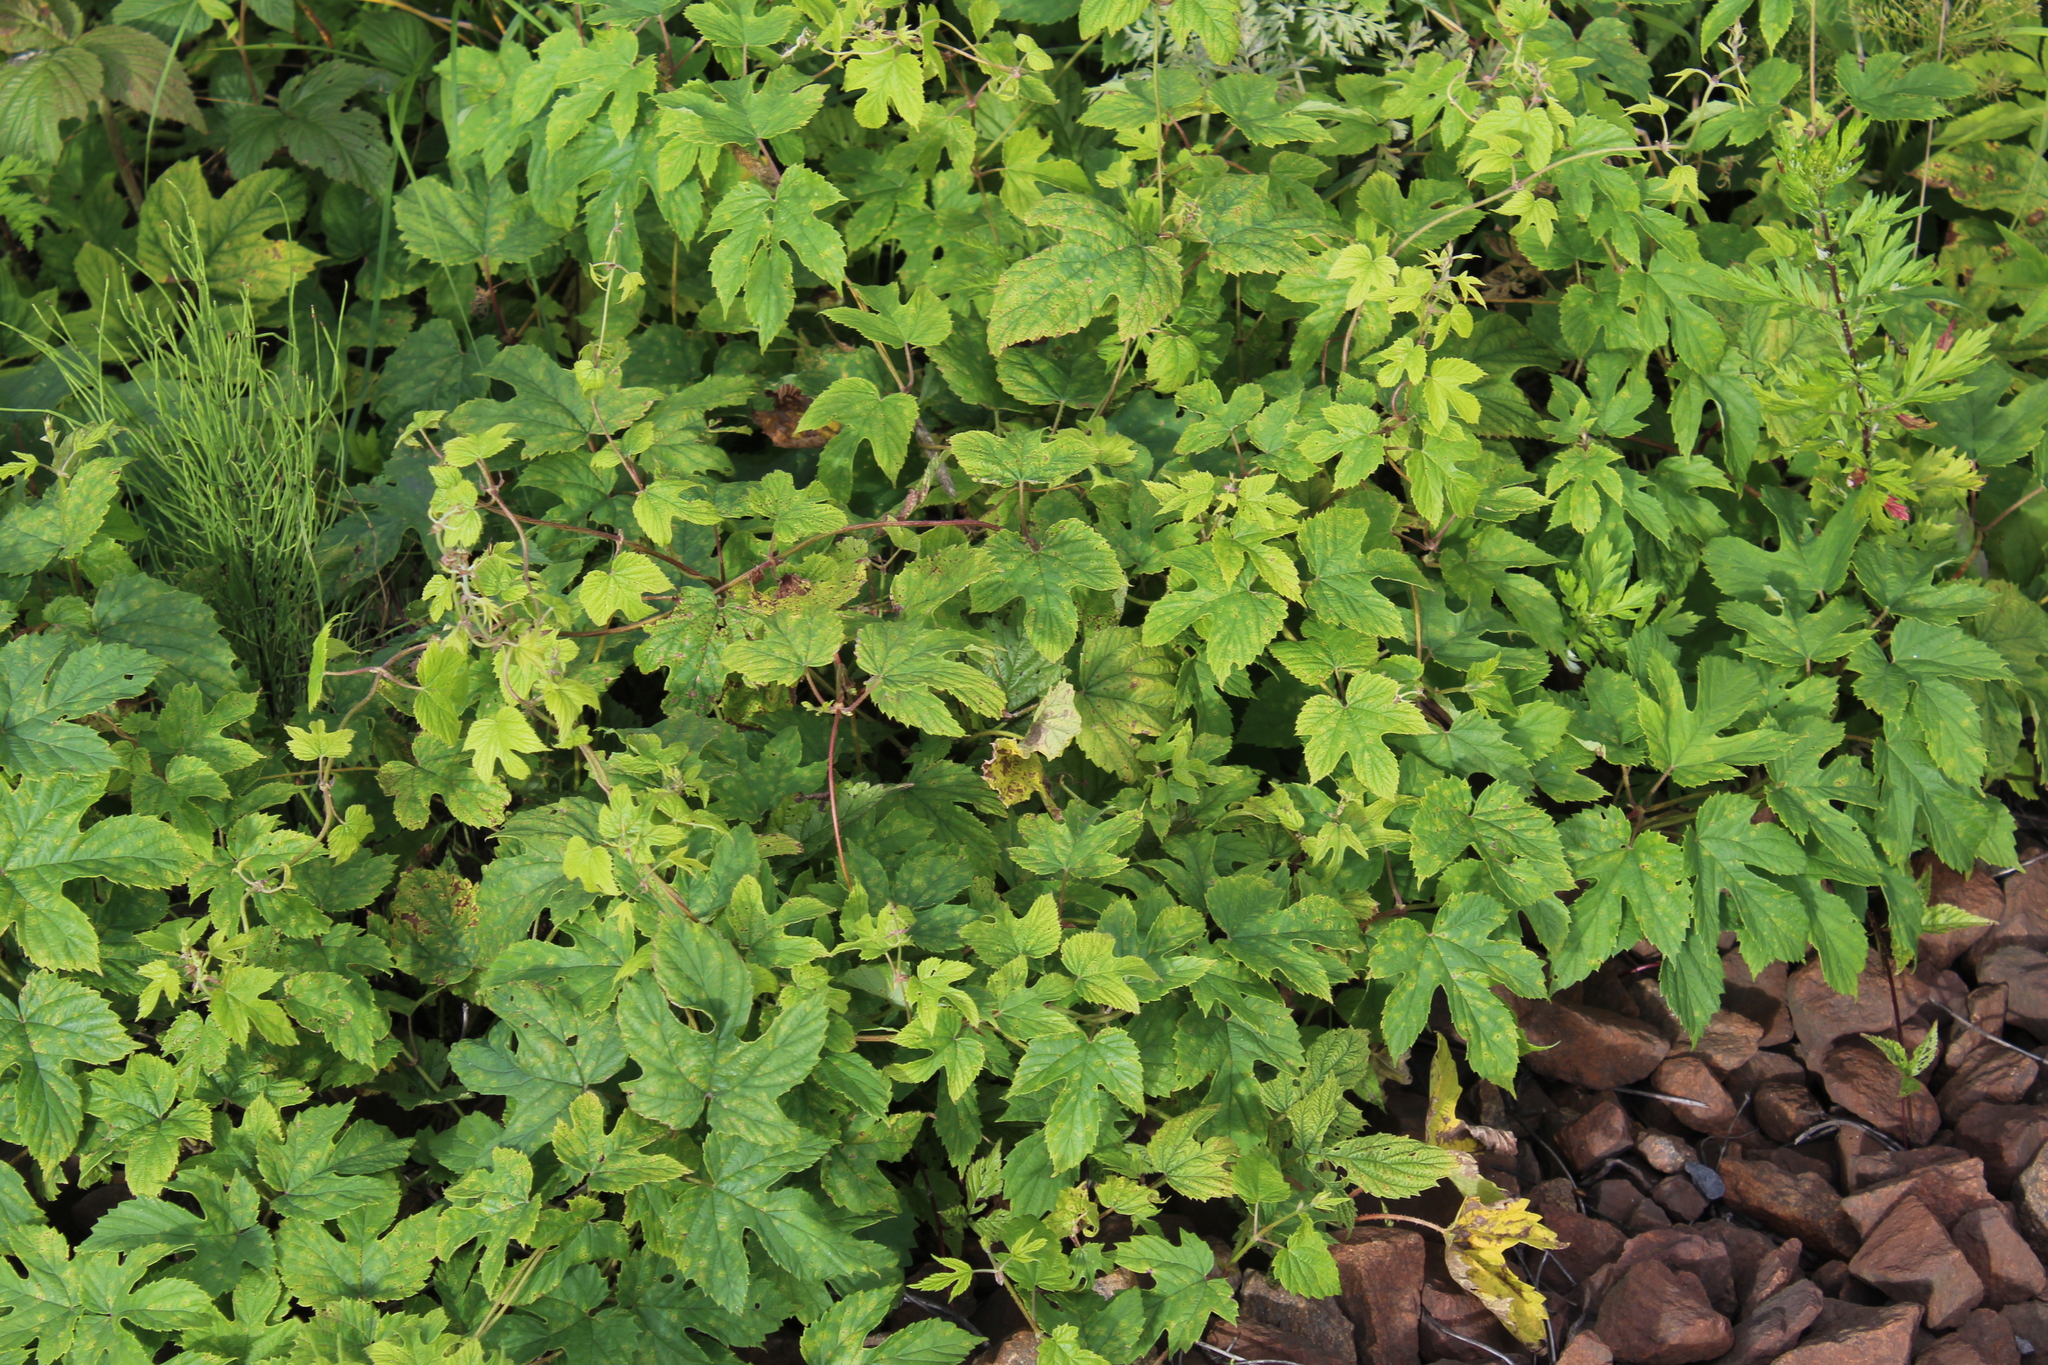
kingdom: Plantae
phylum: Tracheophyta
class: Magnoliopsida
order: Rosales
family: Cannabaceae
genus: Humulus
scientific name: Humulus lupulus
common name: Hop
